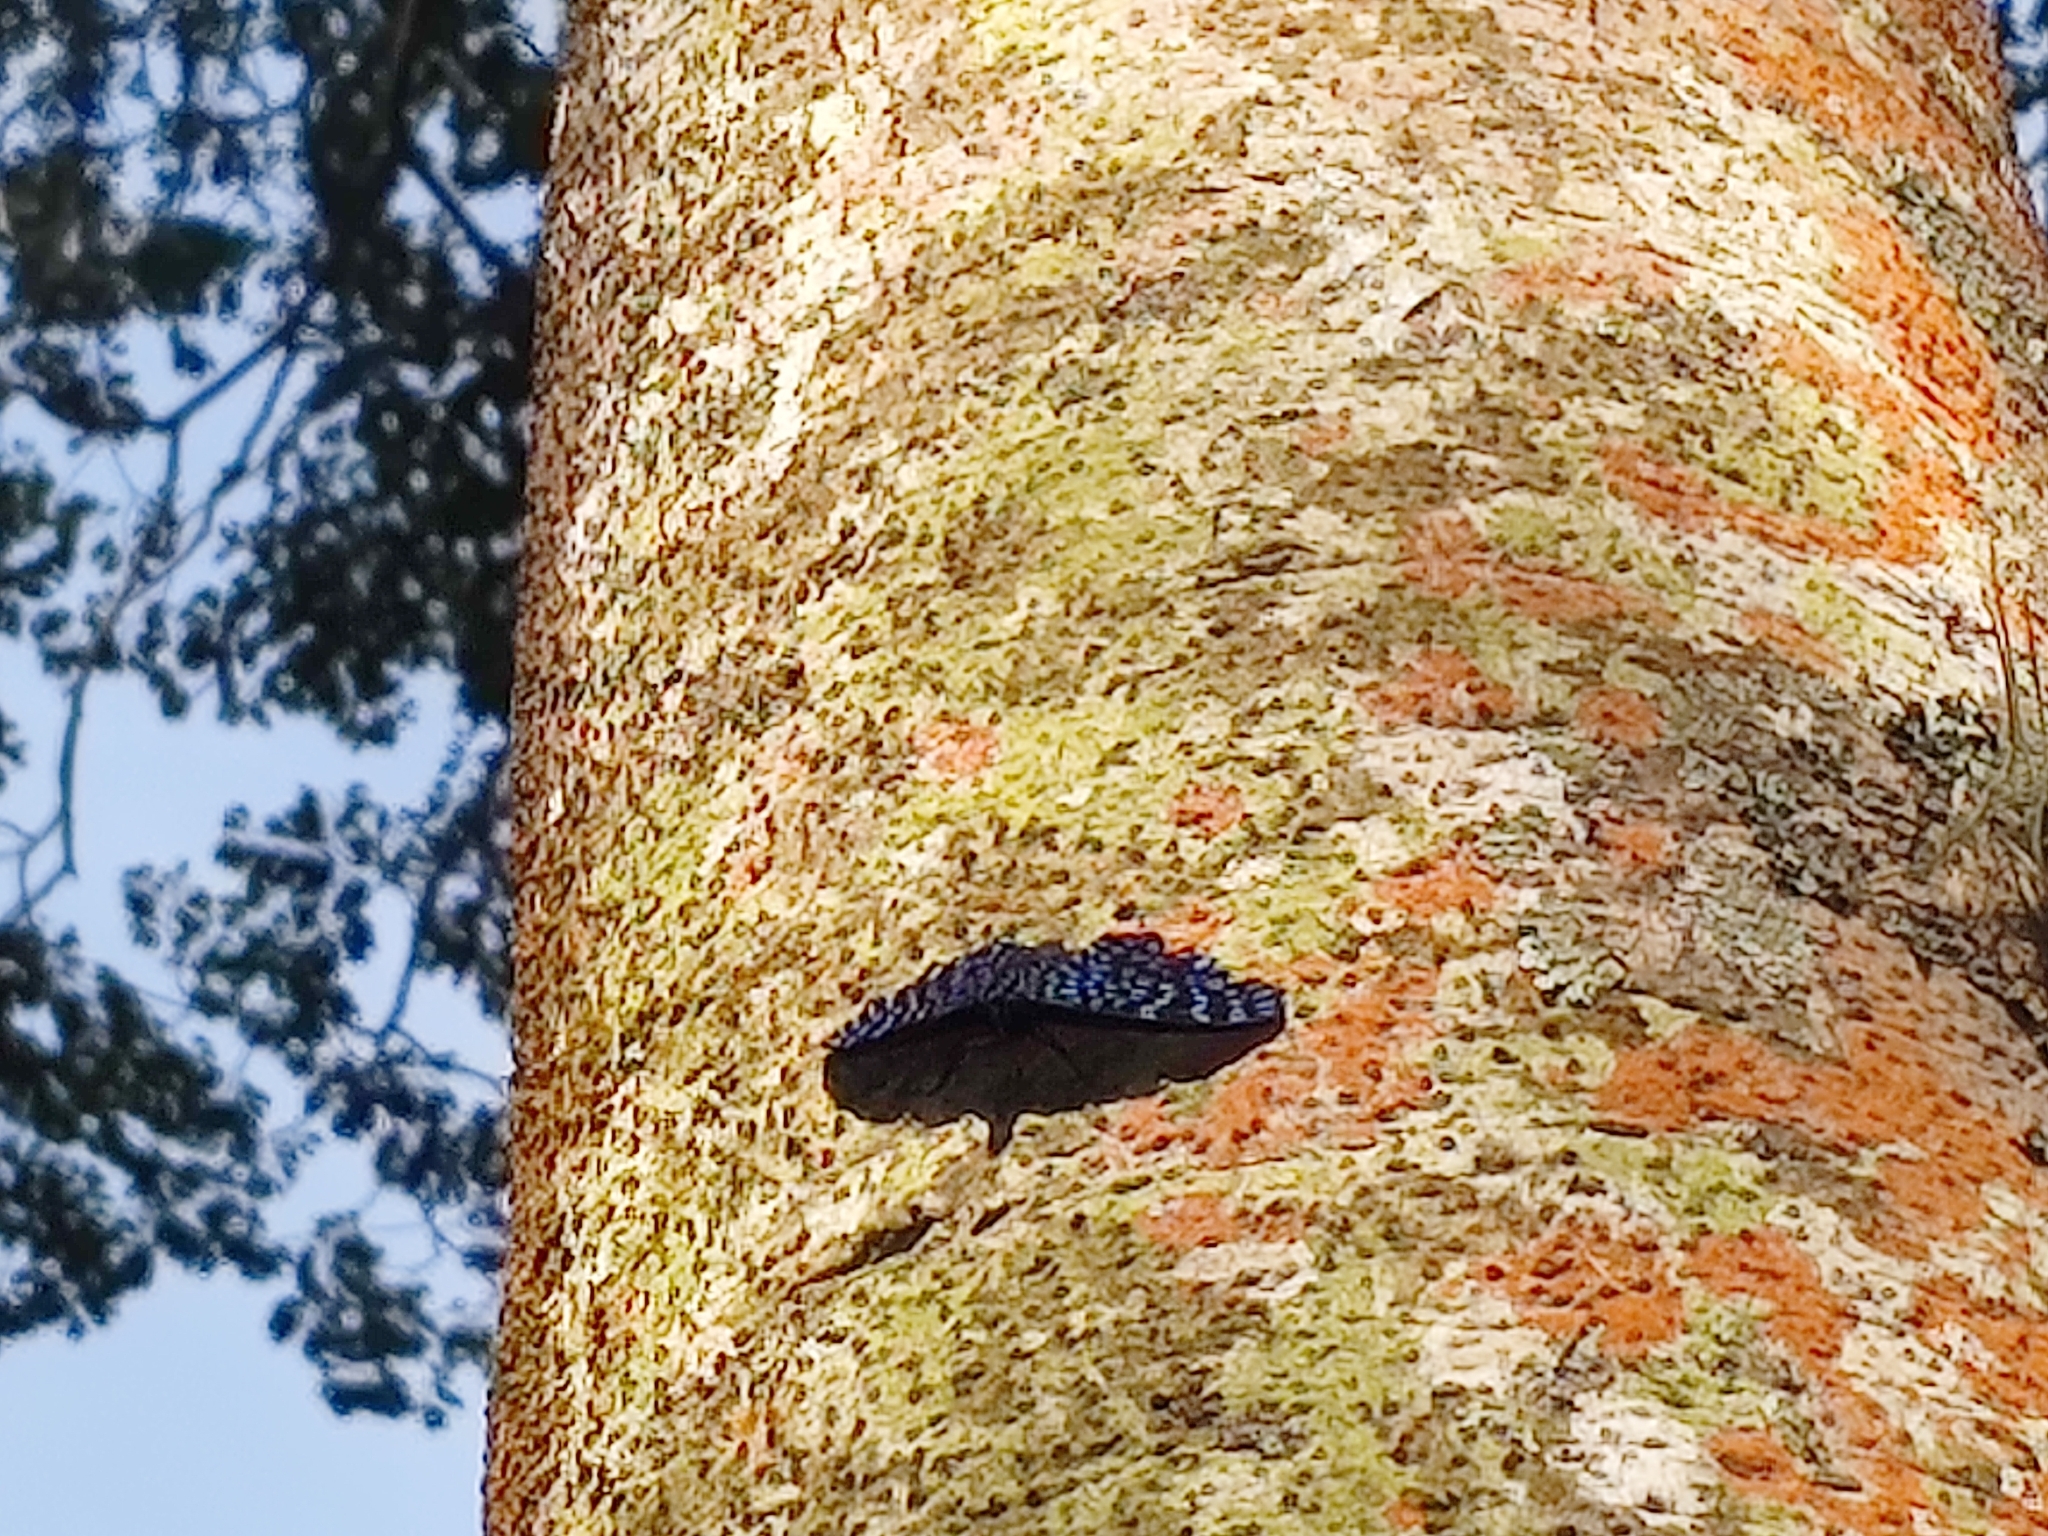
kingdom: Animalia
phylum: Arthropoda
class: Insecta
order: Lepidoptera
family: Nymphalidae
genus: Hamadryas
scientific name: Hamadryas arete
